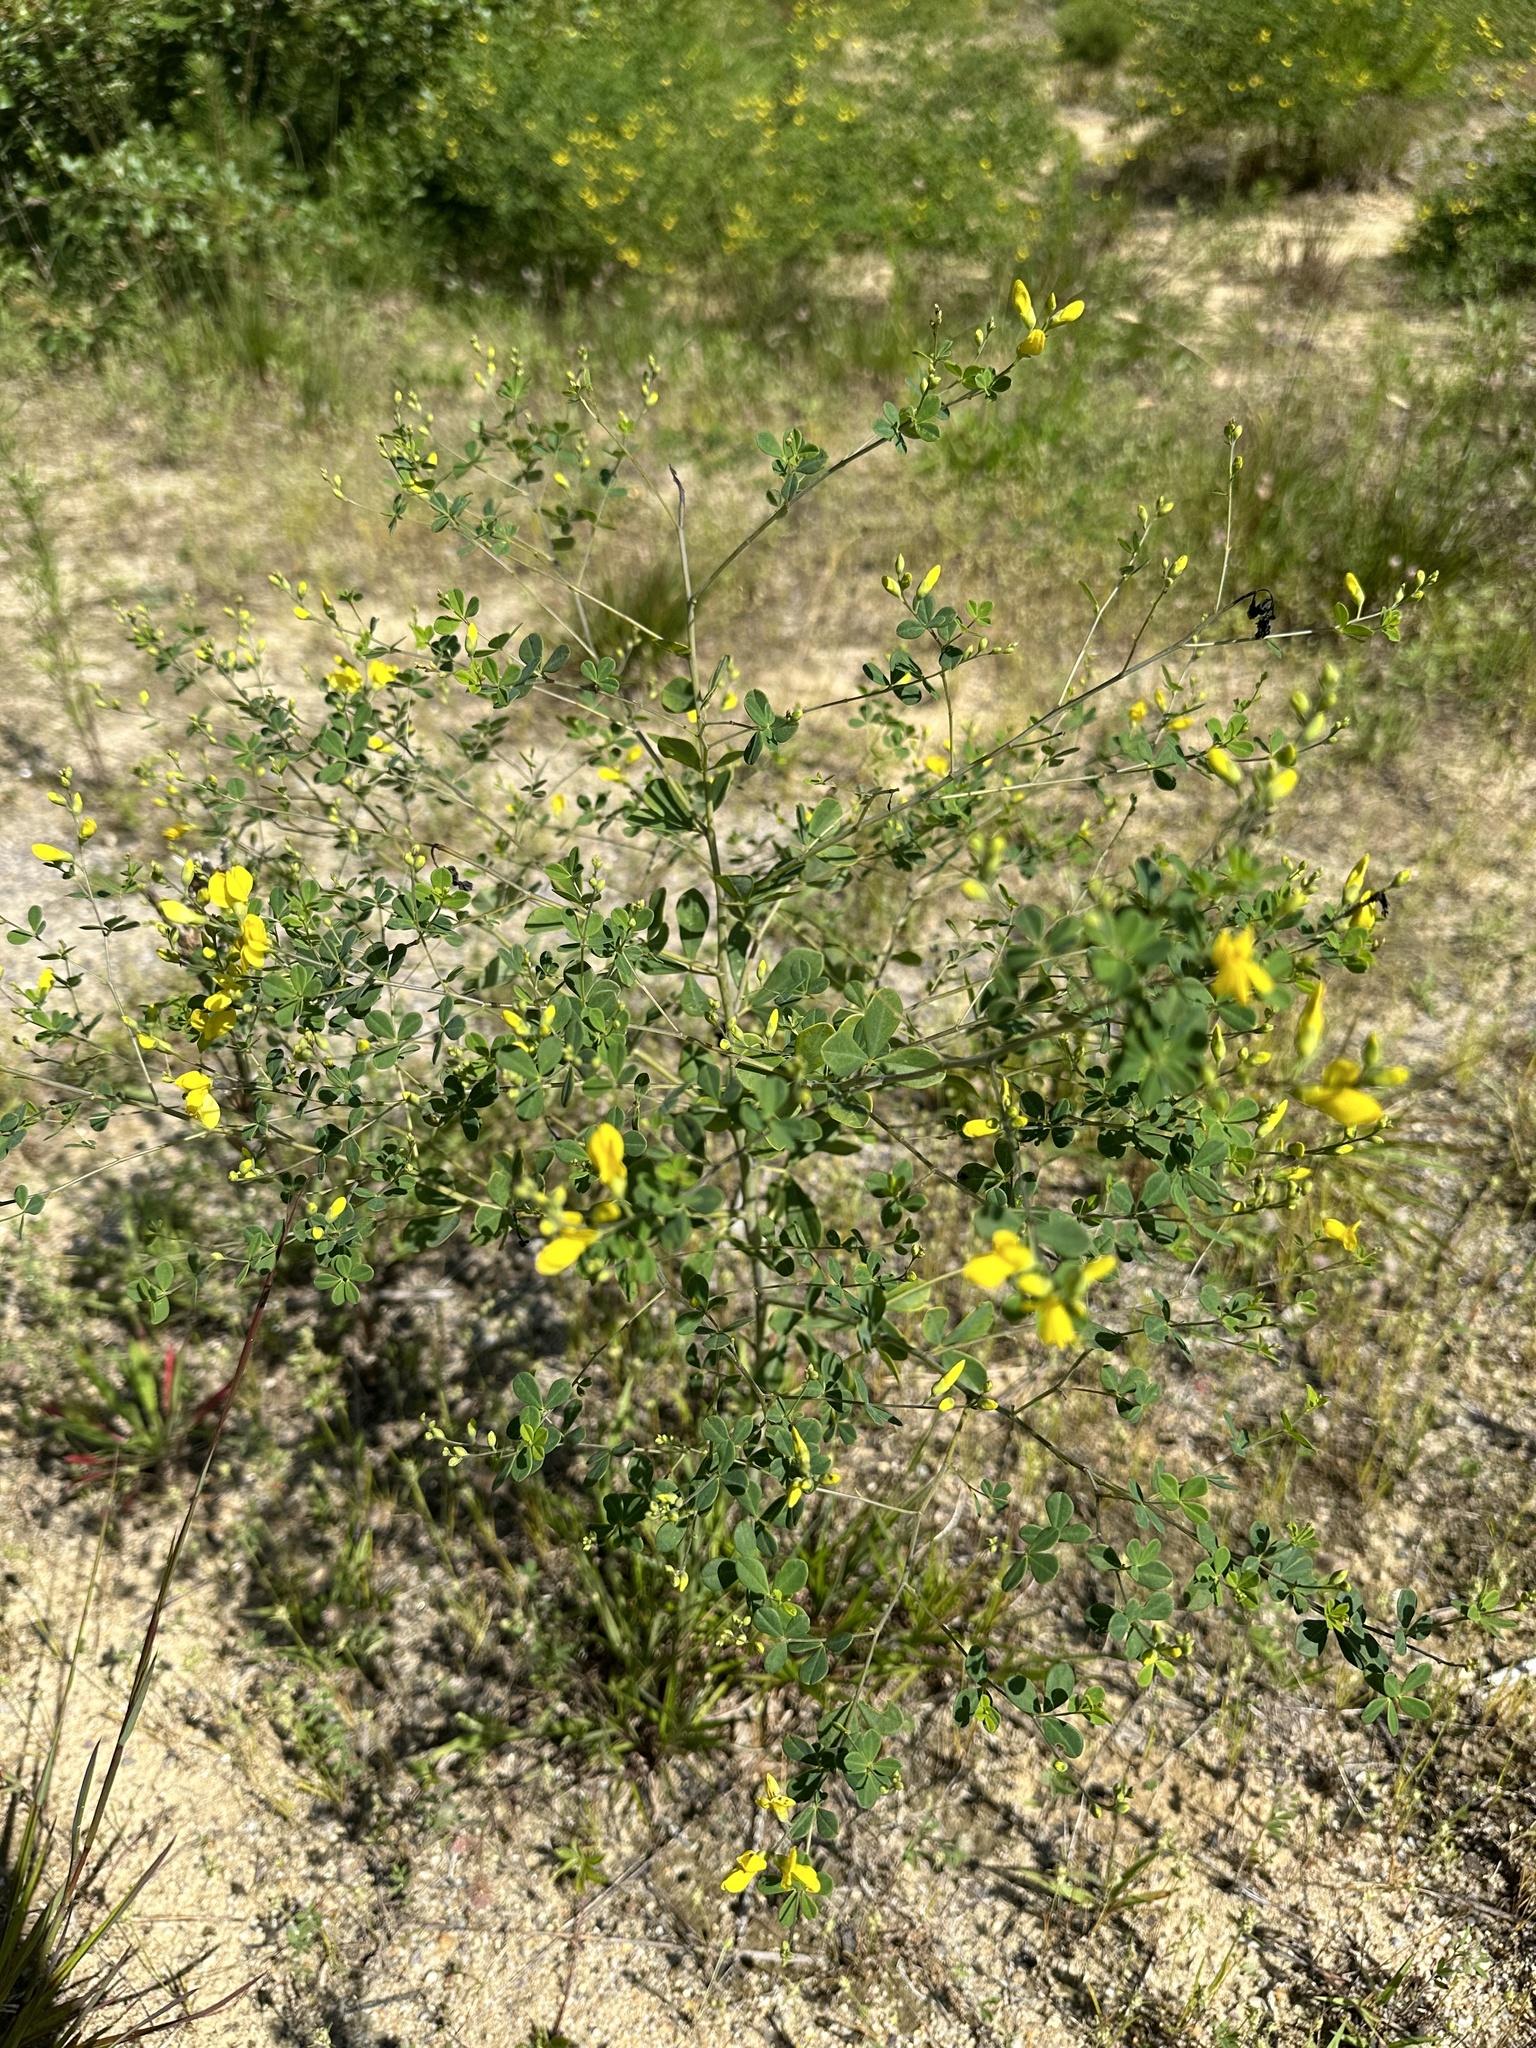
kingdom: Plantae
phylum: Tracheophyta
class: Magnoliopsida
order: Fabales
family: Fabaceae
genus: Baptisia
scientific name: Baptisia tinctoria
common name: Wild indigo
